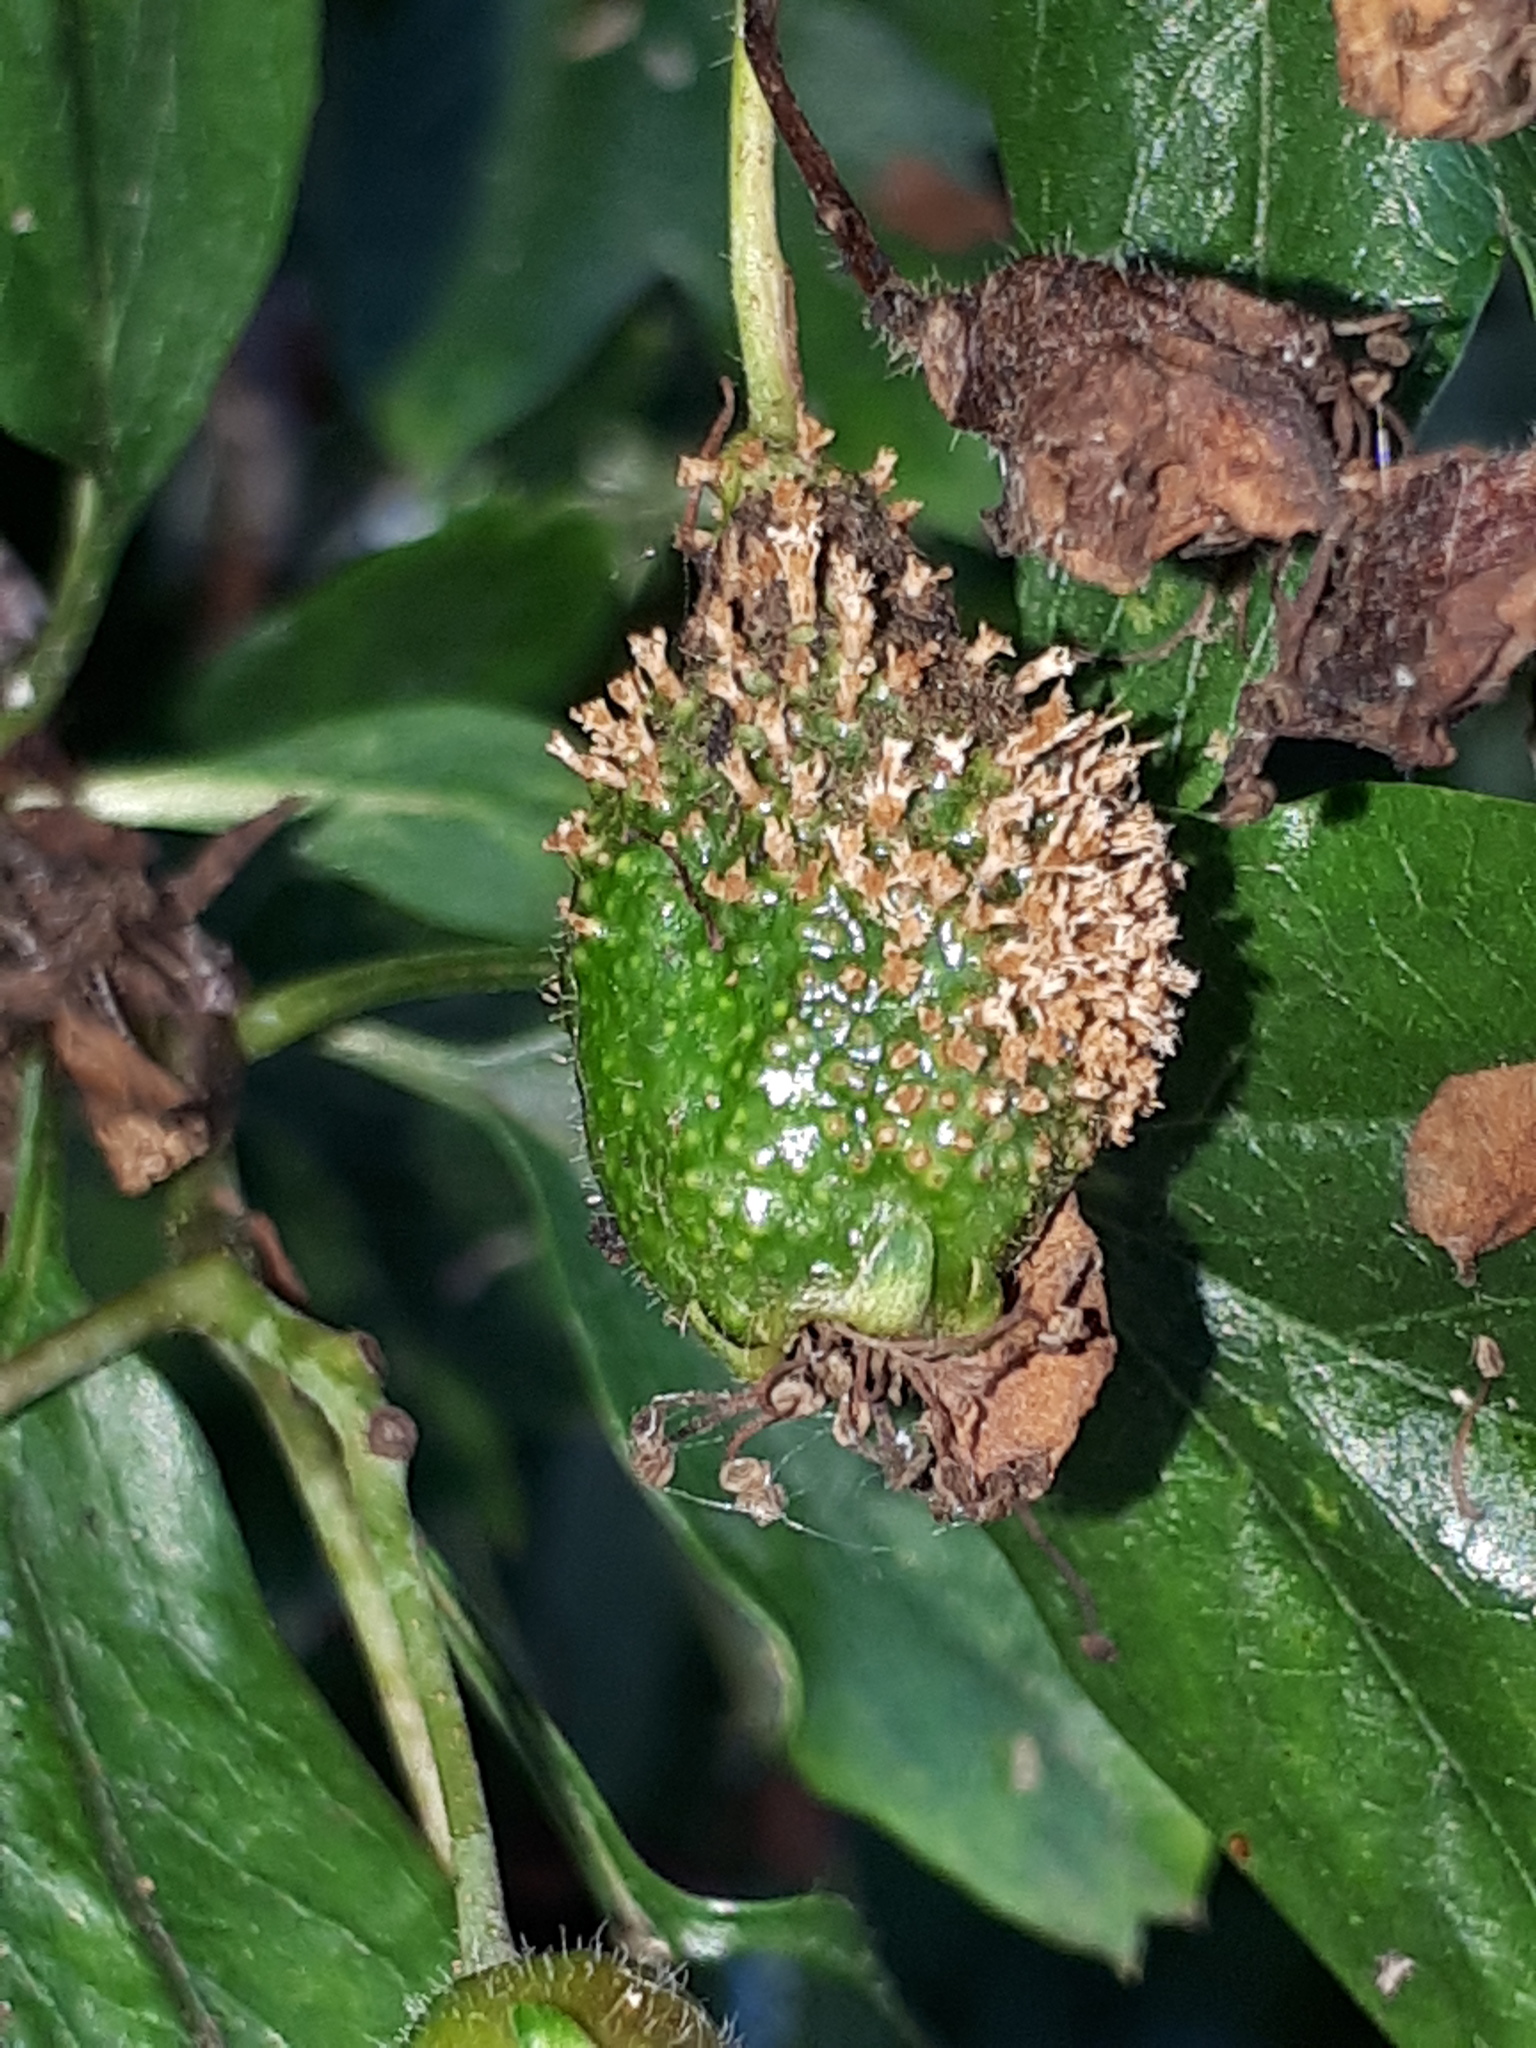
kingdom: Fungi
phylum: Basidiomycota
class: Pucciniomycetes
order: Pucciniales
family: Gymnosporangiaceae
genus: Gymnosporangium
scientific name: Gymnosporangium clavariiforme
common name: Tongues of fire
